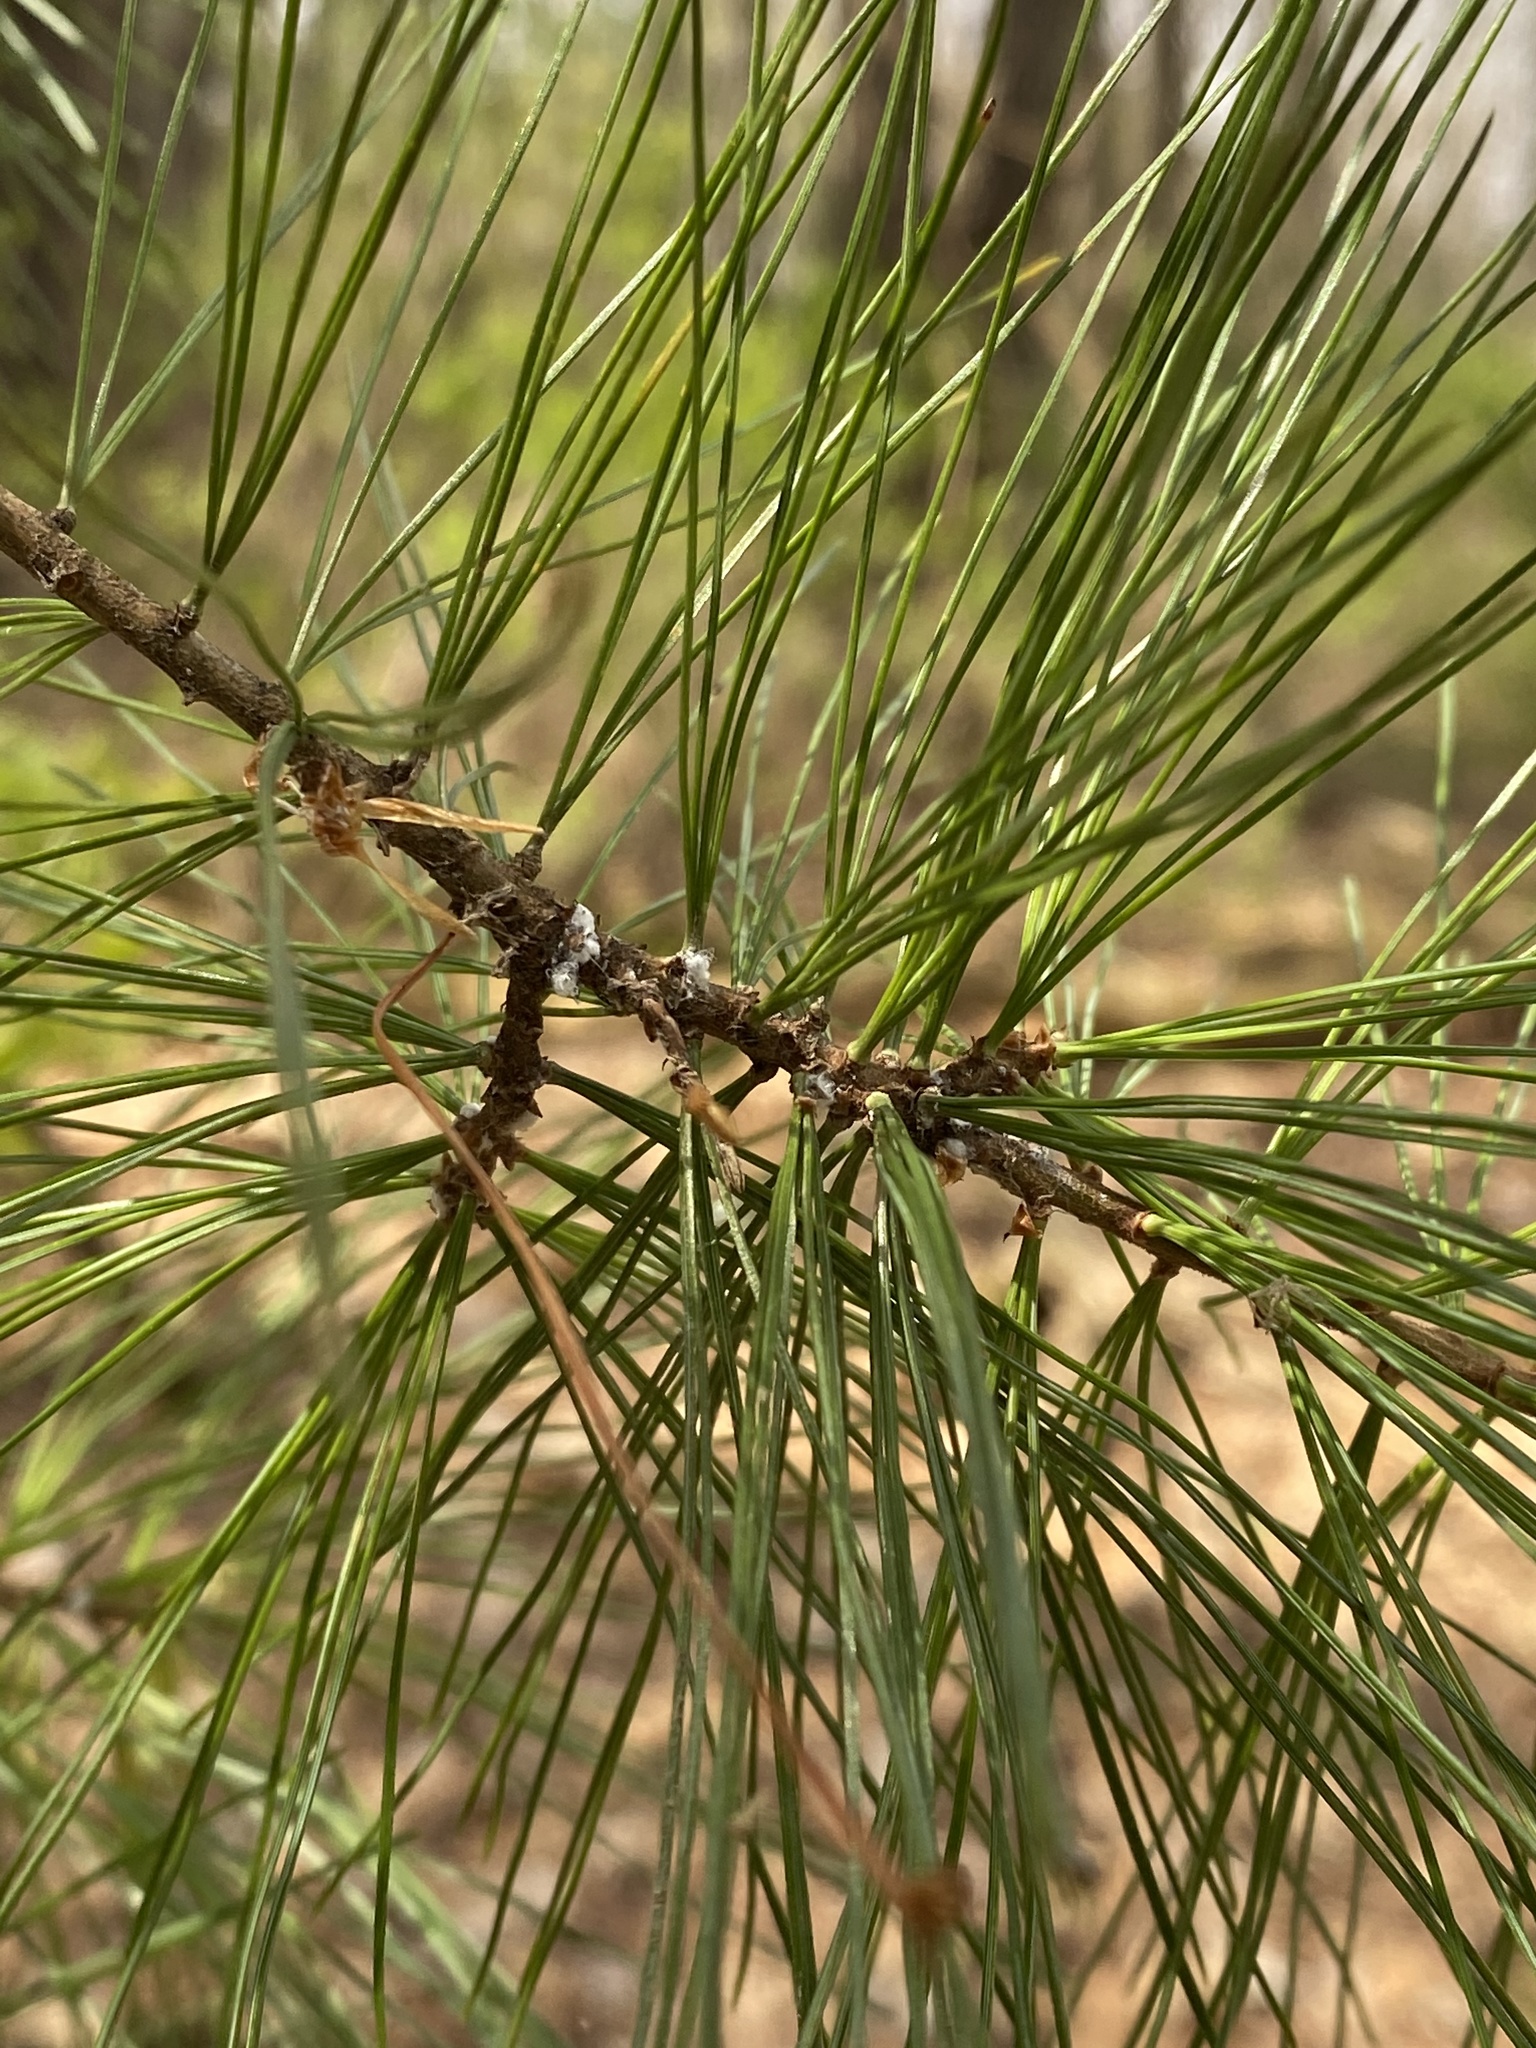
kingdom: Plantae
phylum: Tracheophyta
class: Pinopsida
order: Pinales
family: Pinaceae
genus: Pinus
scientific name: Pinus strobus
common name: Weymouth pine
